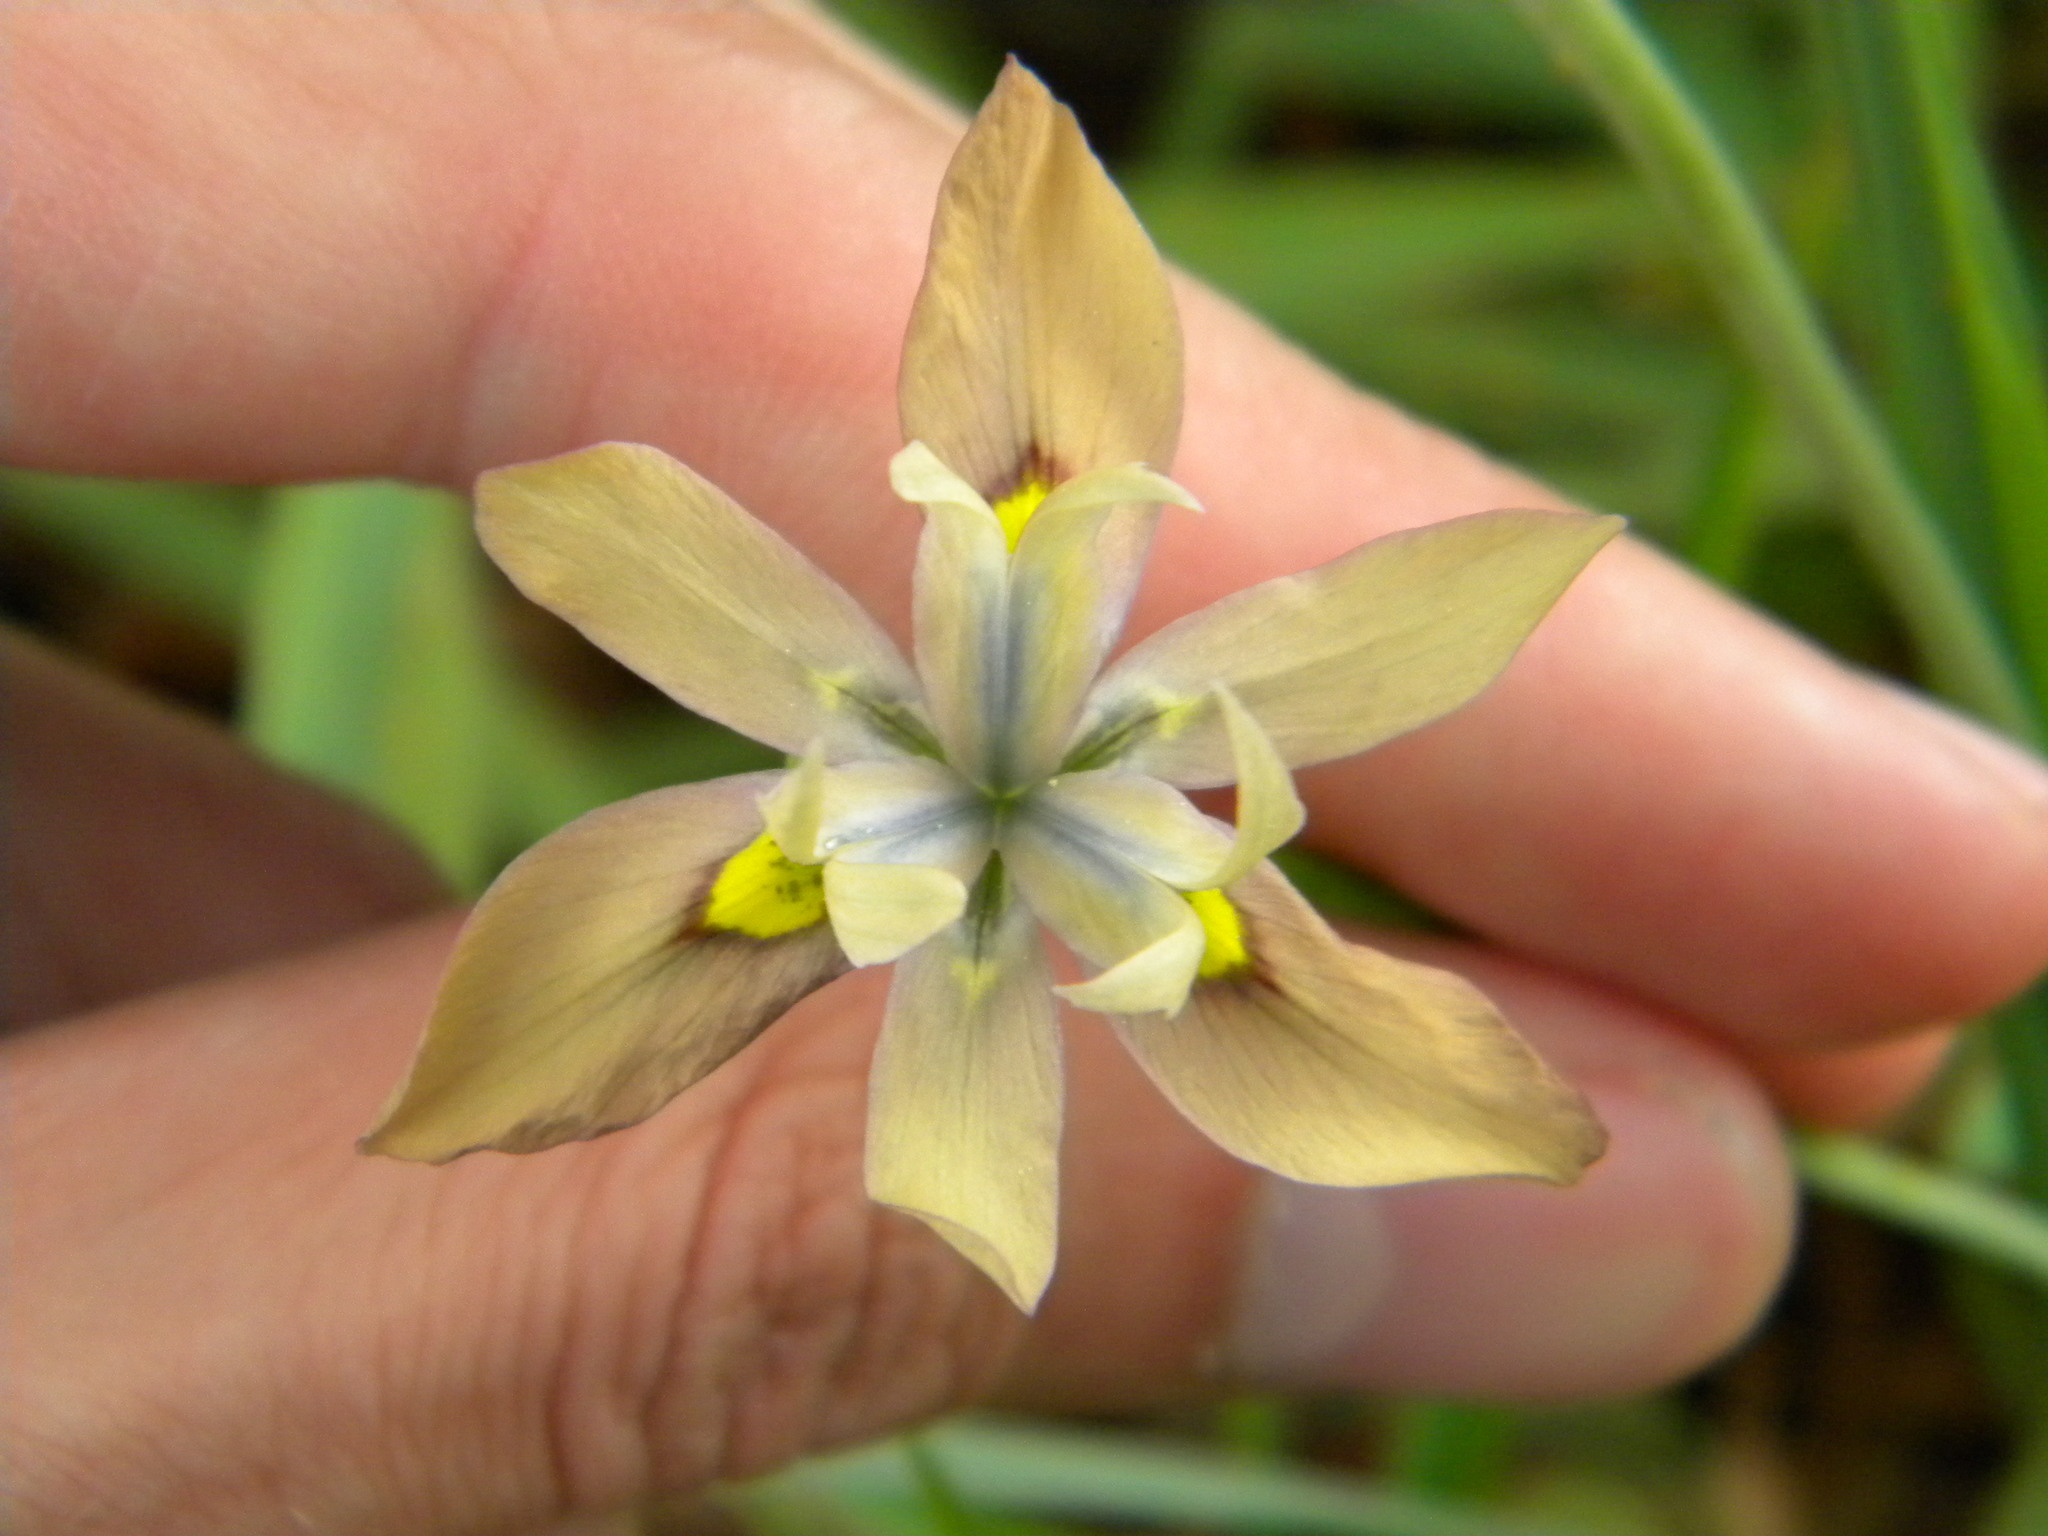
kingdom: Plantae
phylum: Tracheophyta
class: Liliopsida
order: Asparagales
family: Iridaceae
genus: Moraea
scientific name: Moraea vegeta
